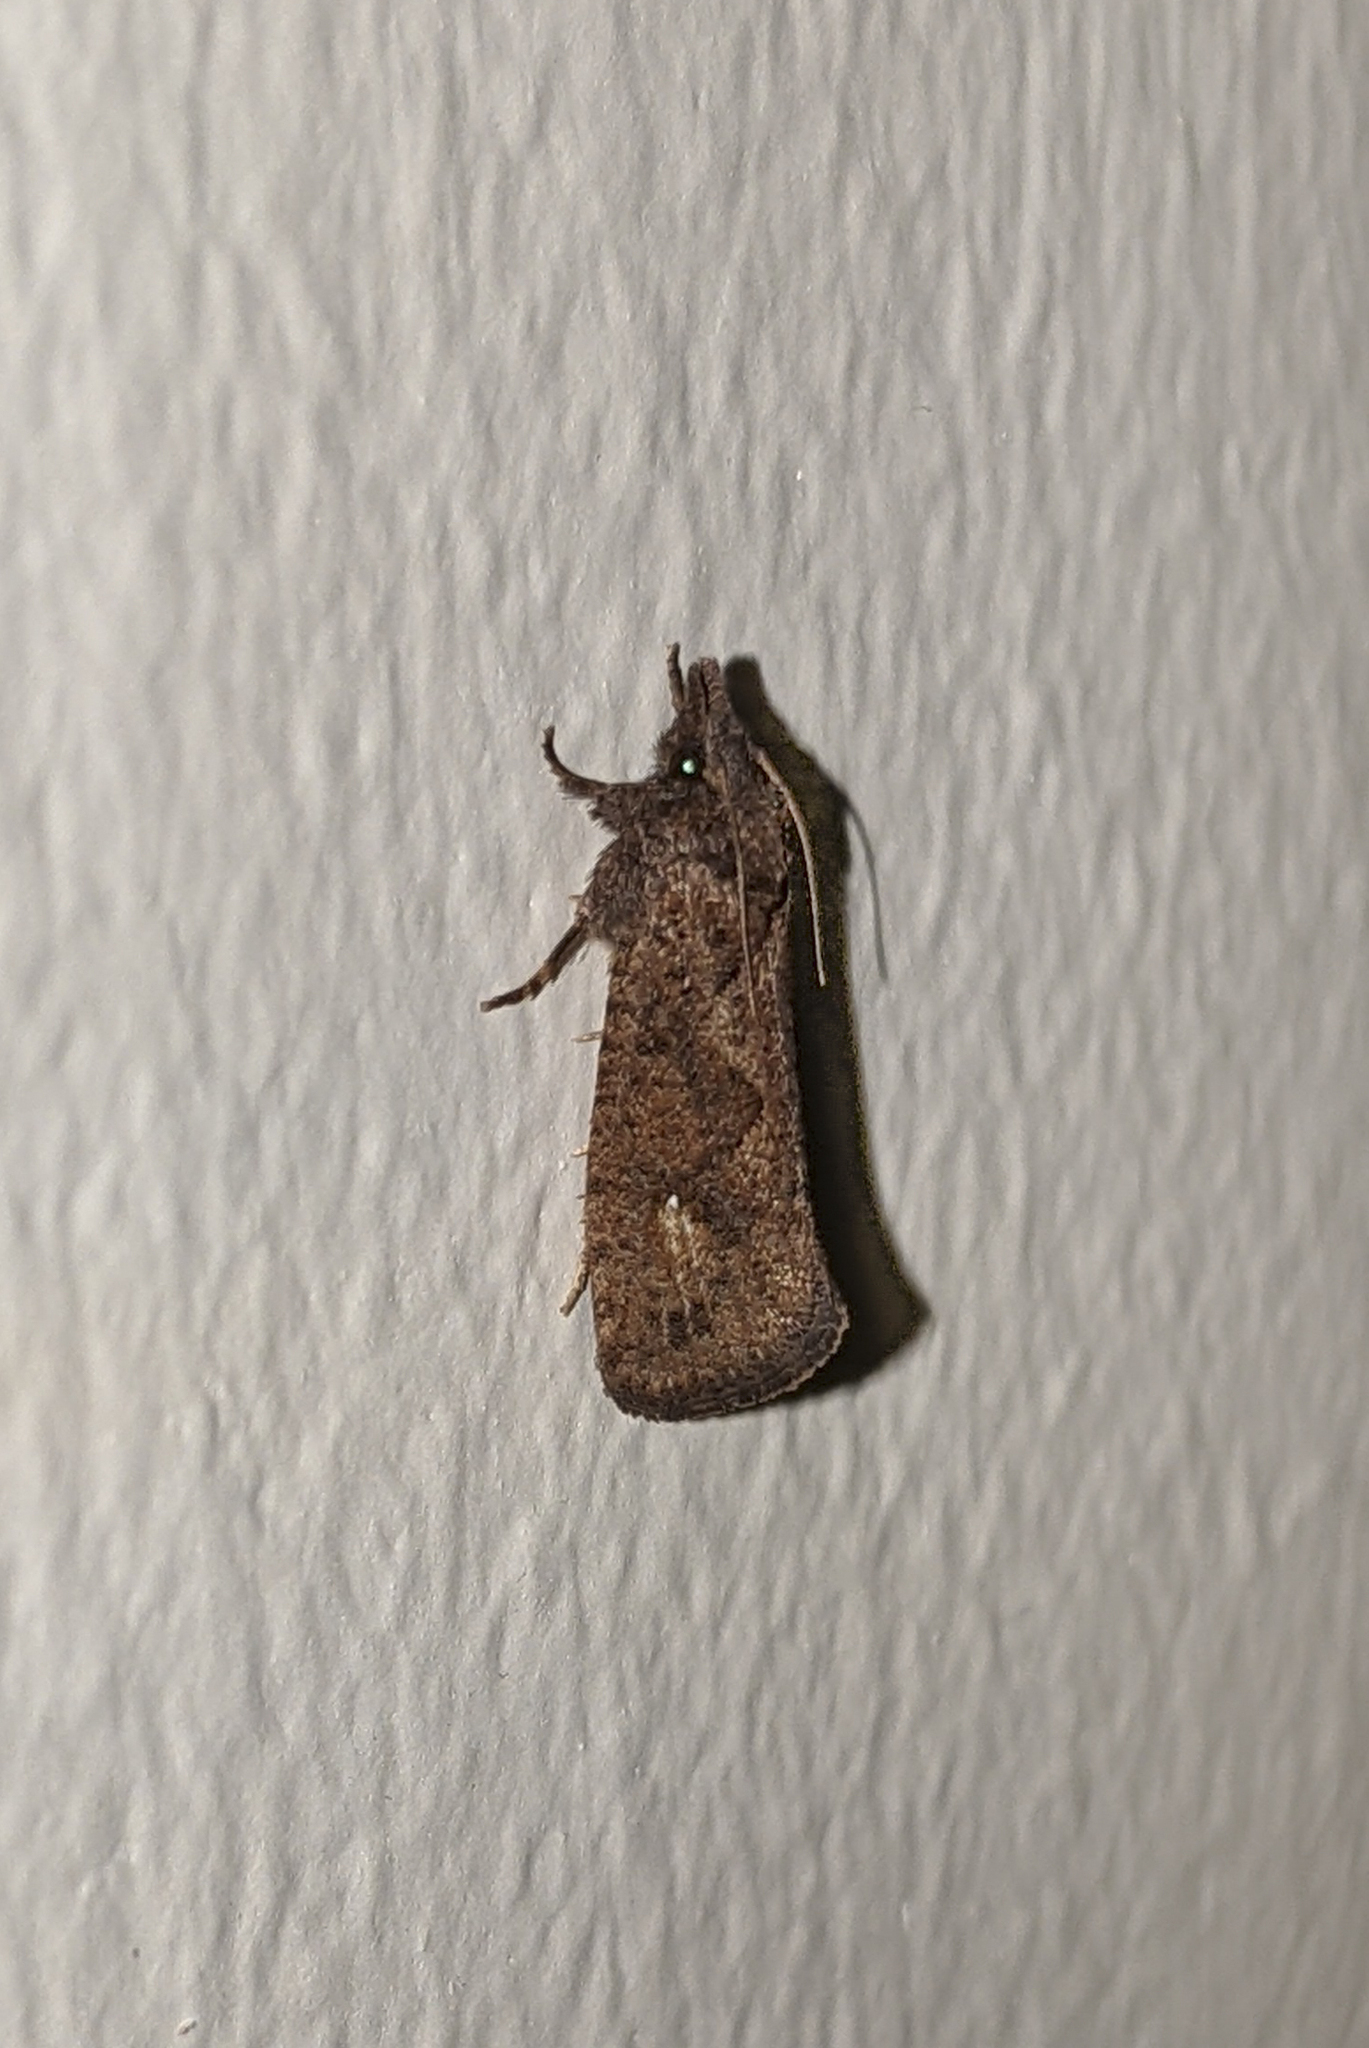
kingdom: Animalia
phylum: Arthropoda
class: Insecta
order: Lepidoptera
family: Tineidae
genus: Acrolophus
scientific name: Acrolophus walsinghami
